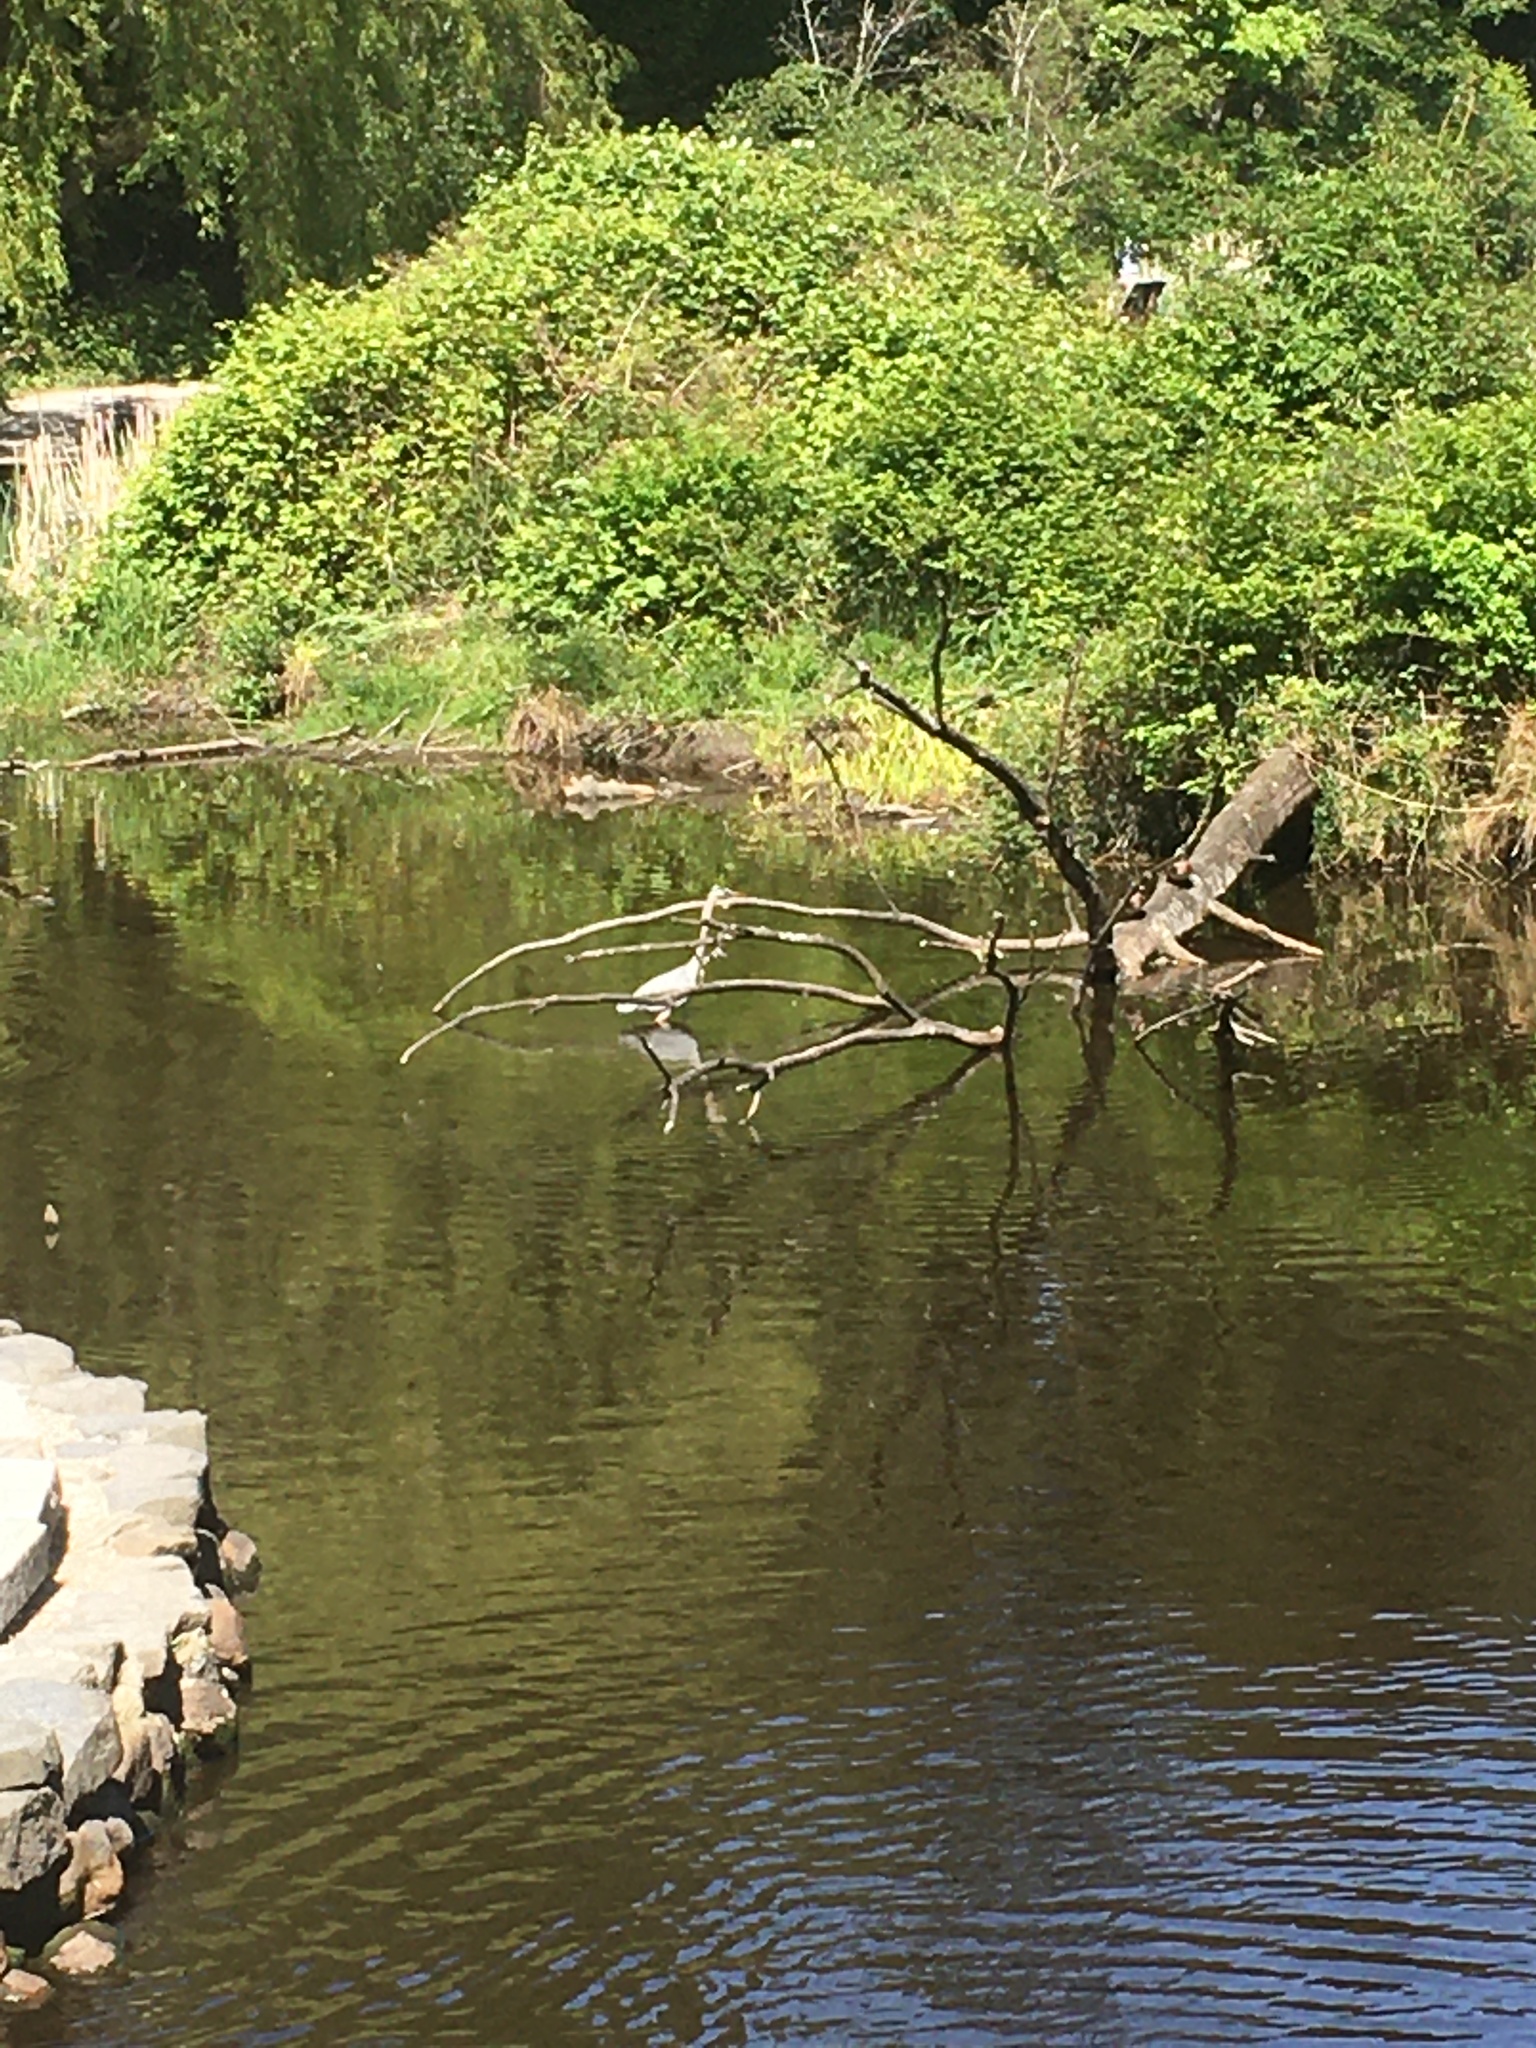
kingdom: Animalia
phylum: Chordata
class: Aves
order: Pelecaniformes
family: Ardeidae
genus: Ardea
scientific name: Ardea herodias
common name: Great blue heron
